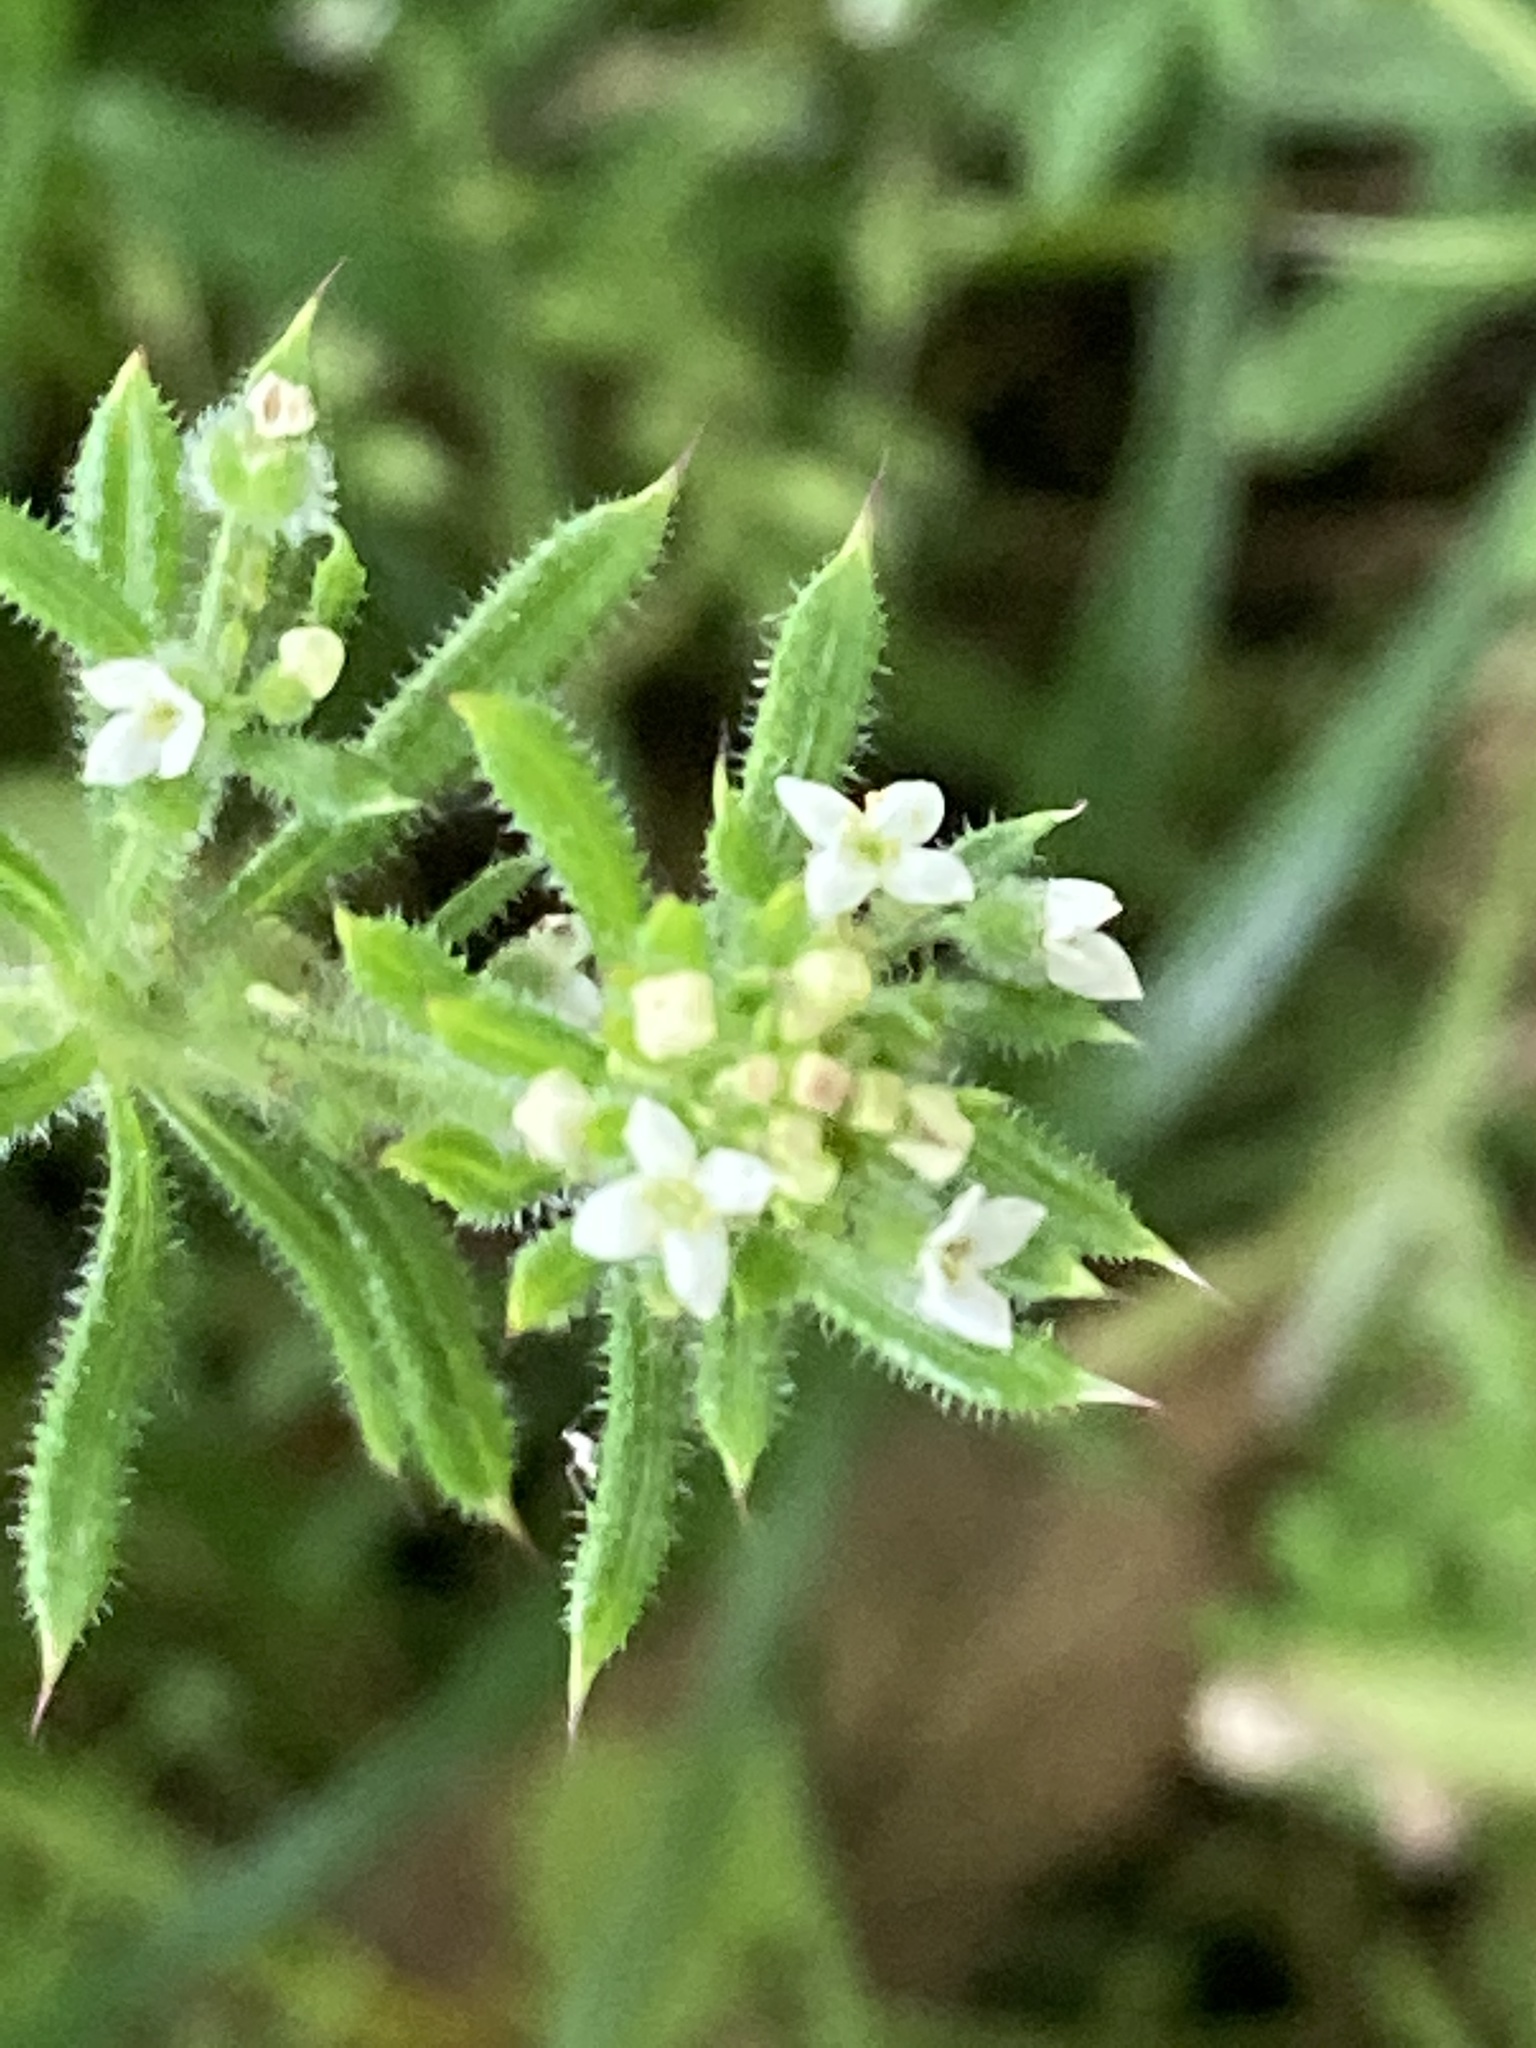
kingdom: Plantae
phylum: Tracheophyta
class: Magnoliopsida
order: Gentianales
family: Rubiaceae
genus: Galium
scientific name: Galium aparine
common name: Cleavers
